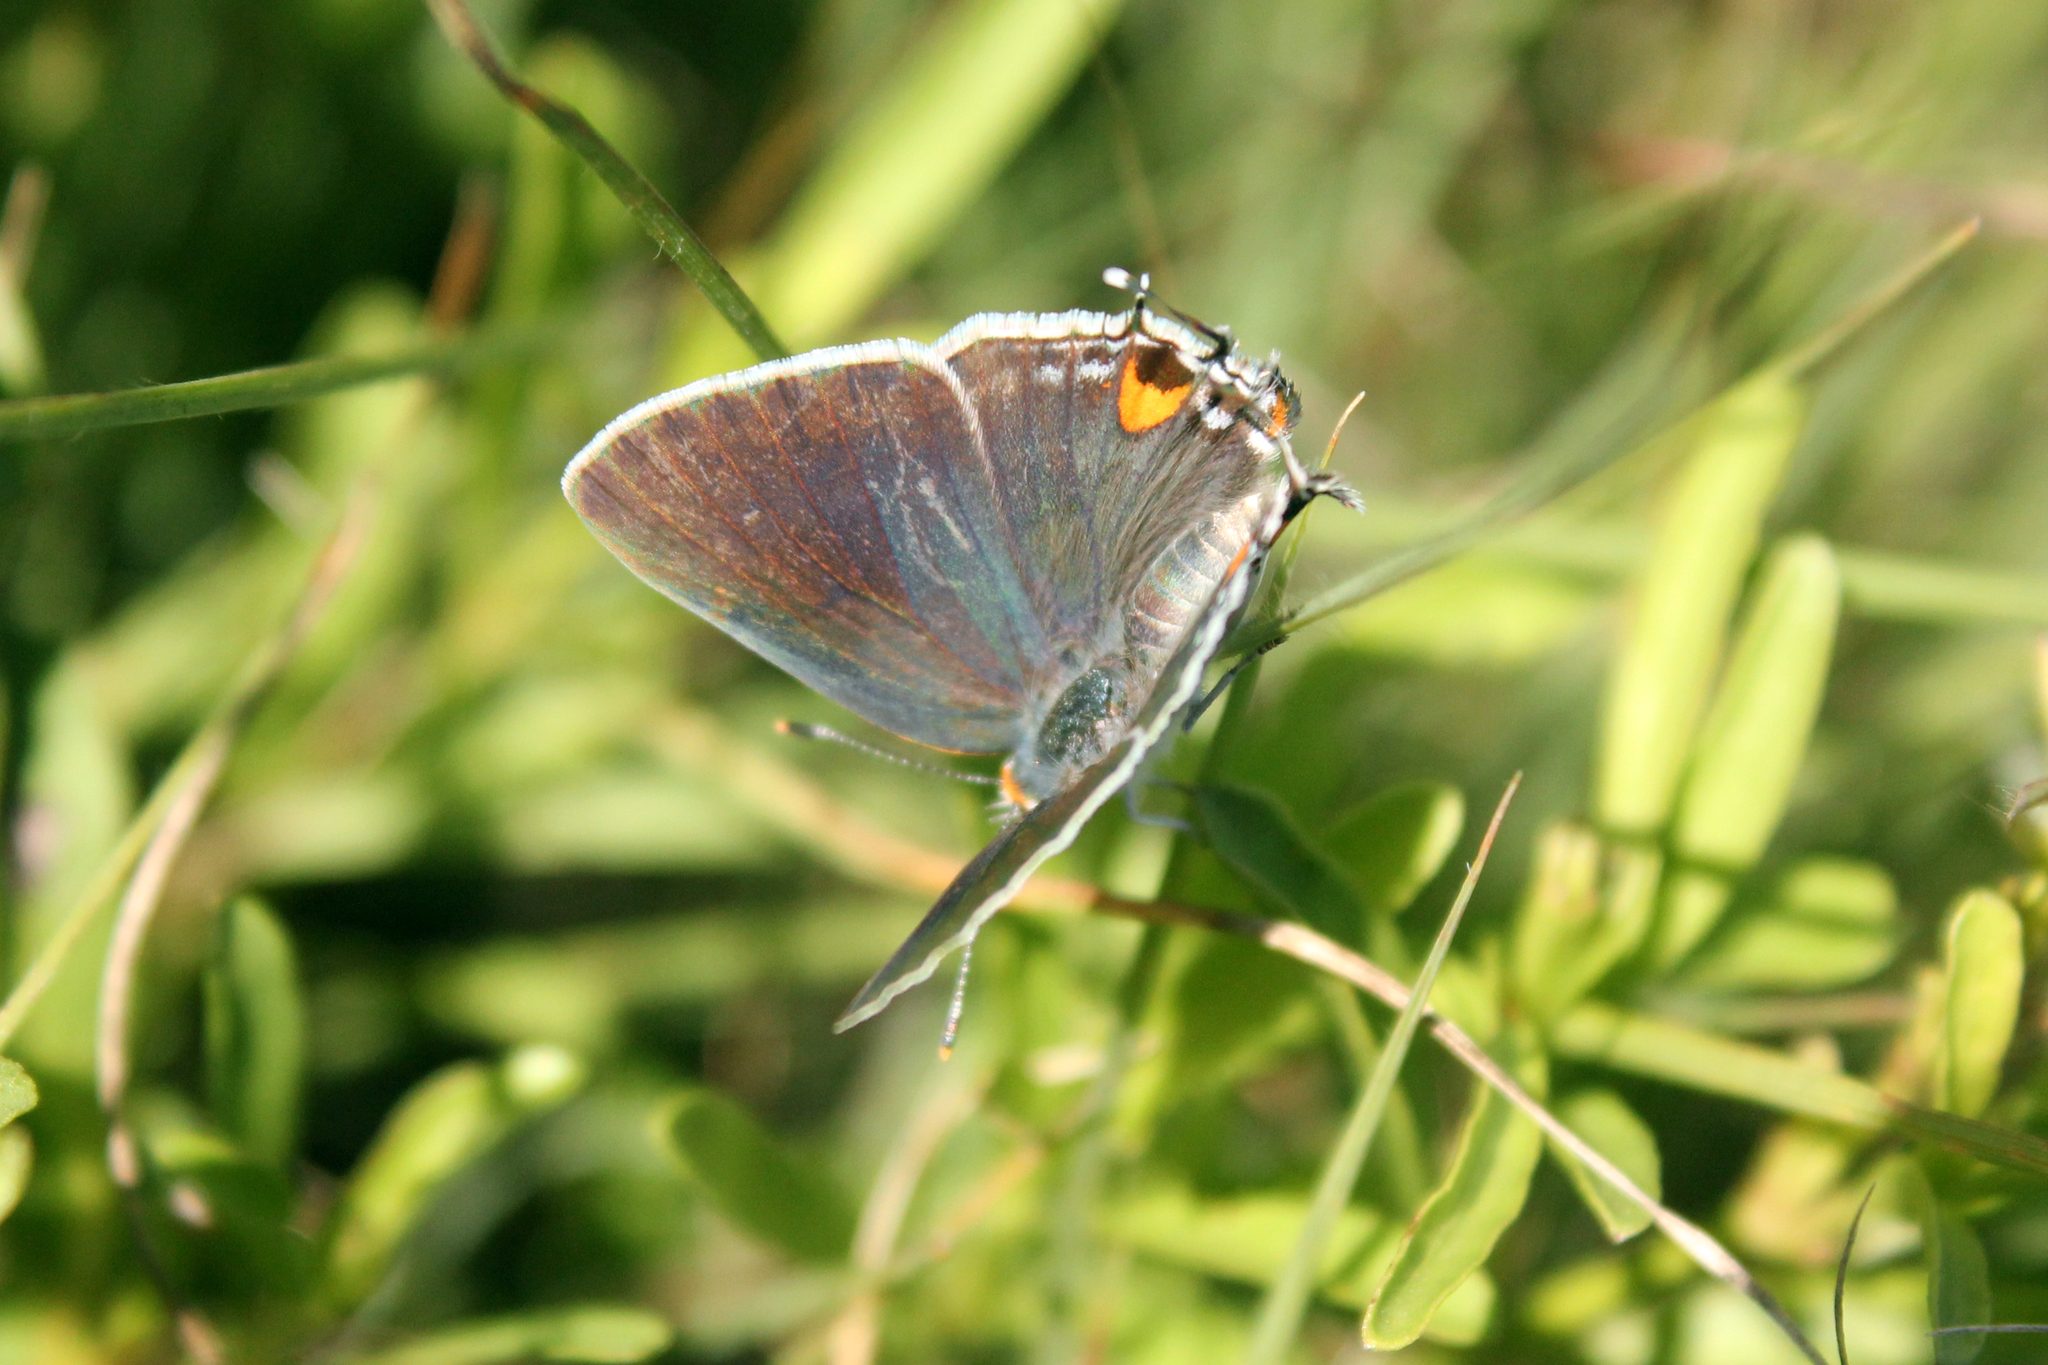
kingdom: Animalia
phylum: Arthropoda
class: Insecta
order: Lepidoptera
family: Lycaenidae
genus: Strymon
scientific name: Strymon melinus
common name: Gray hairstreak
